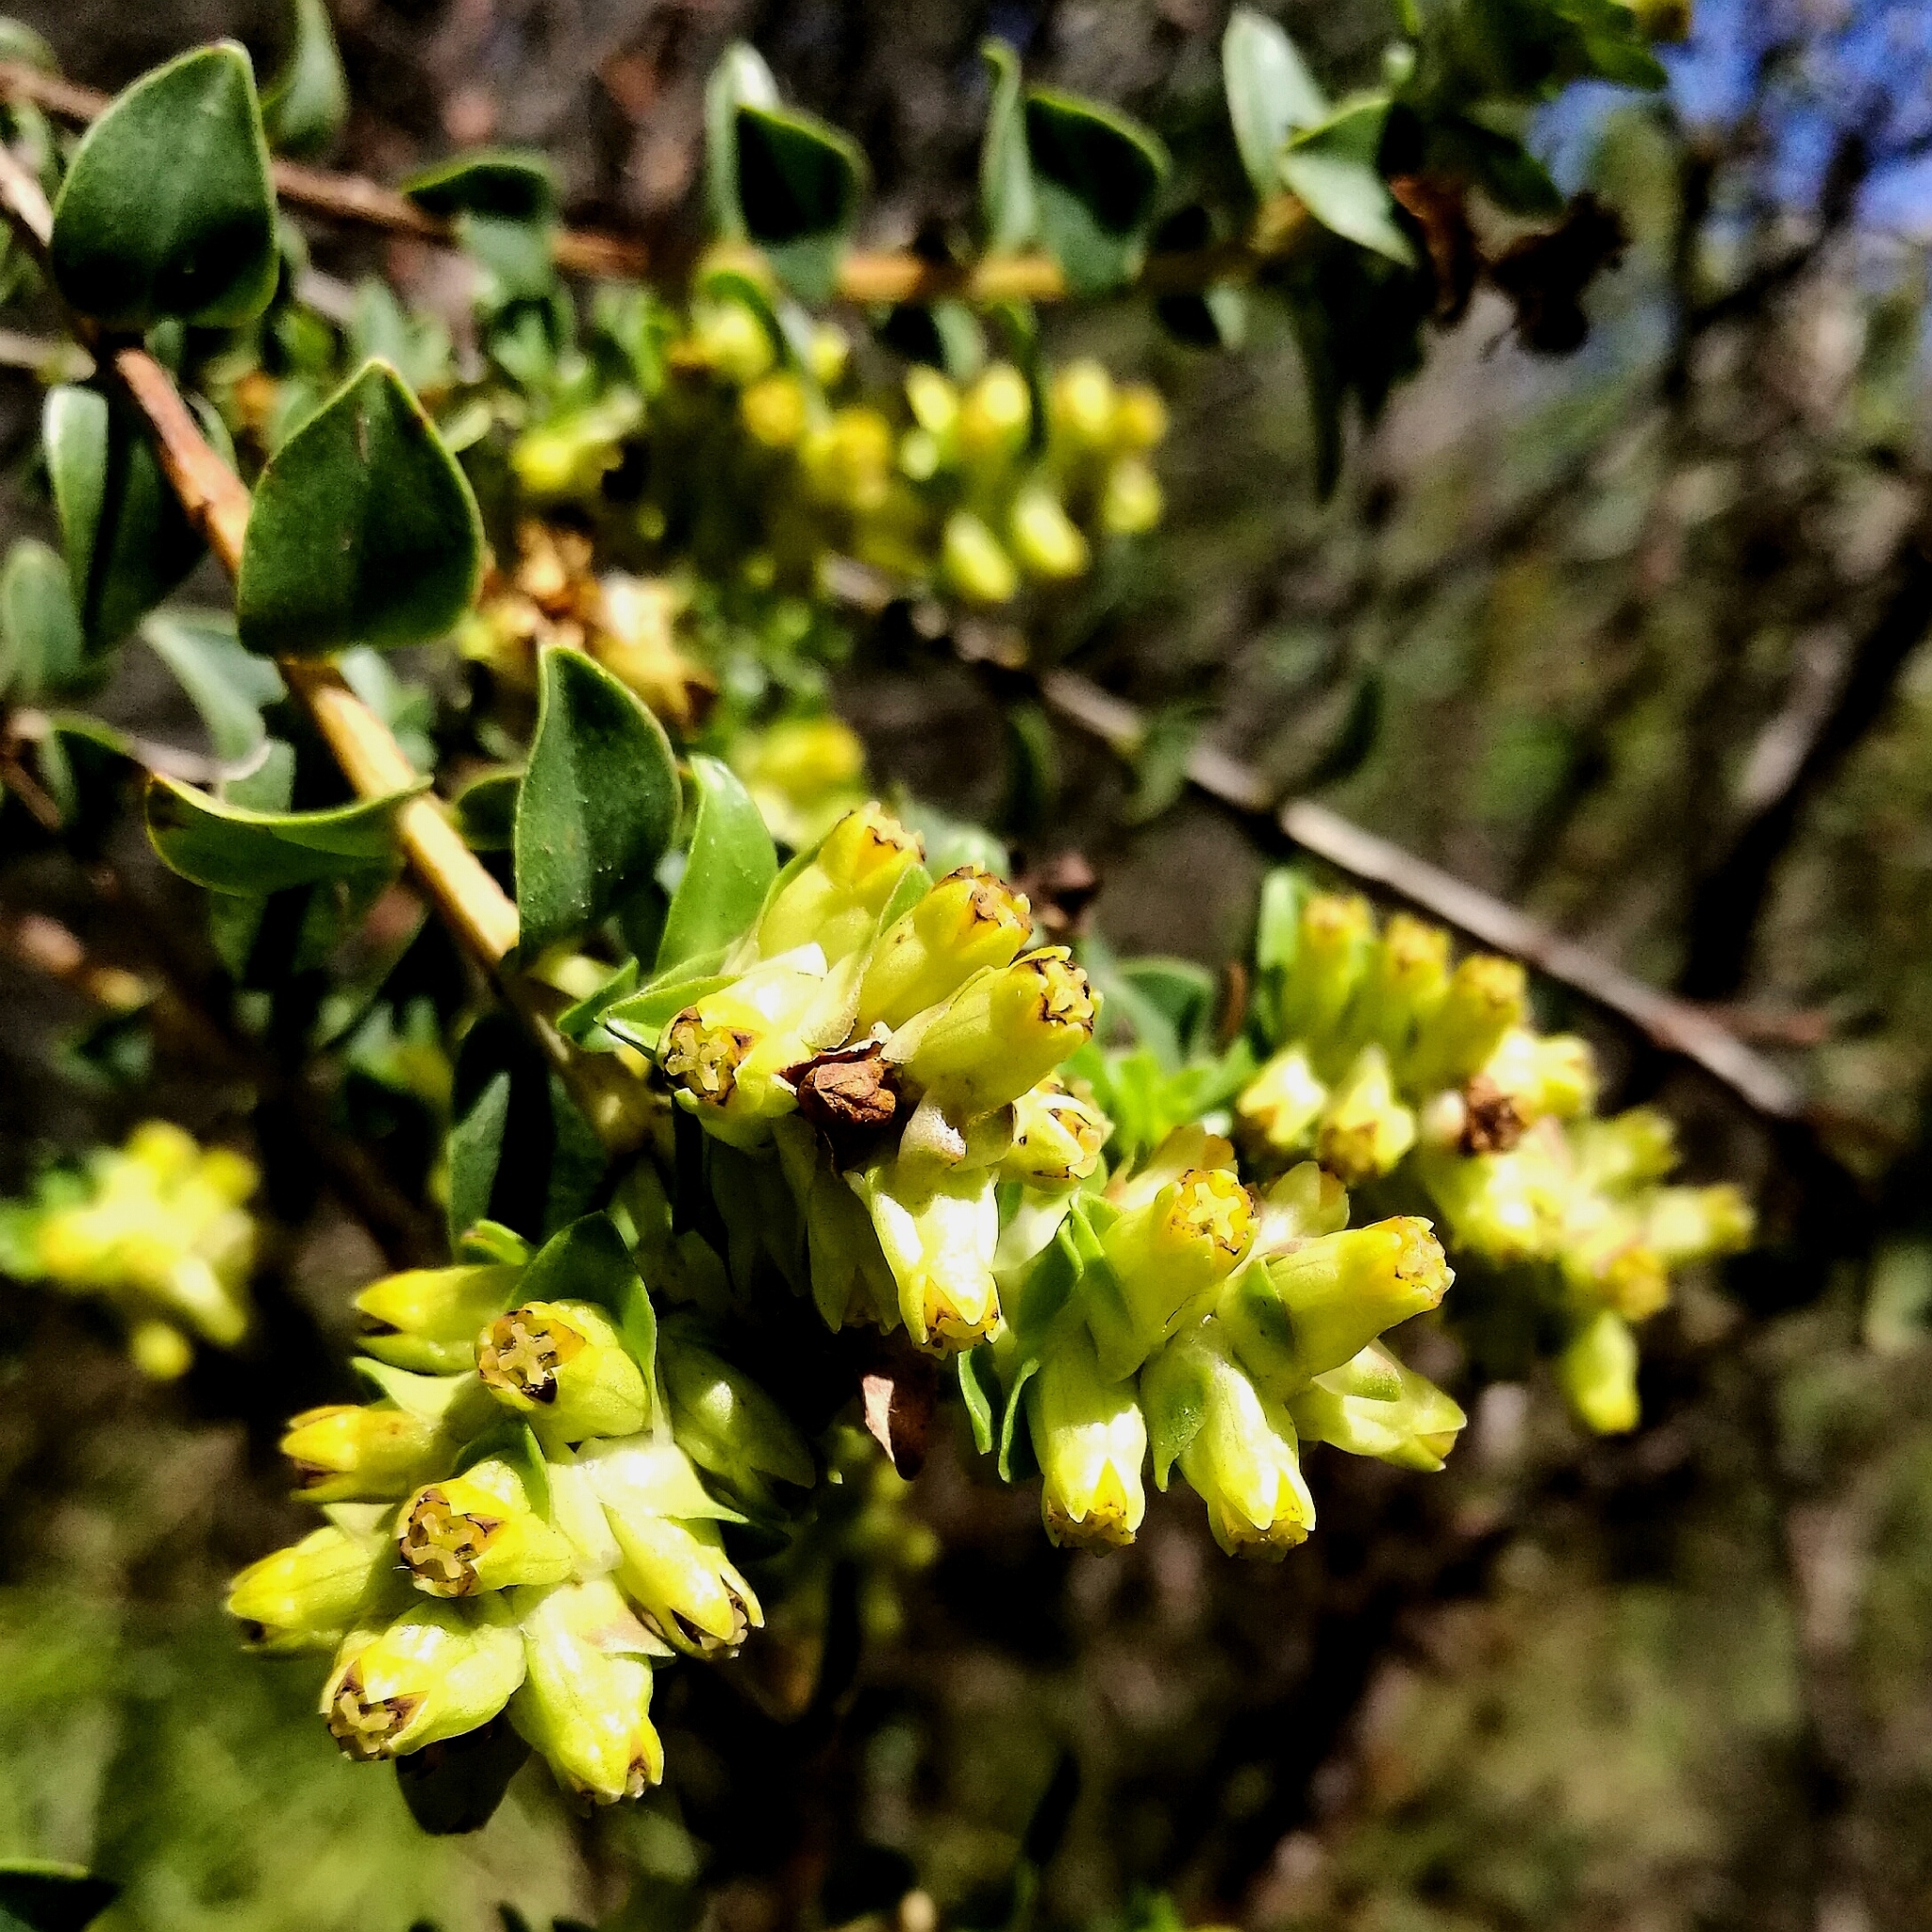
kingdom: Plantae
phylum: Tracheophyta
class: Magnoliopsida
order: Myrtales
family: Penaeaceae
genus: Penaea
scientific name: Penaea cneorum
